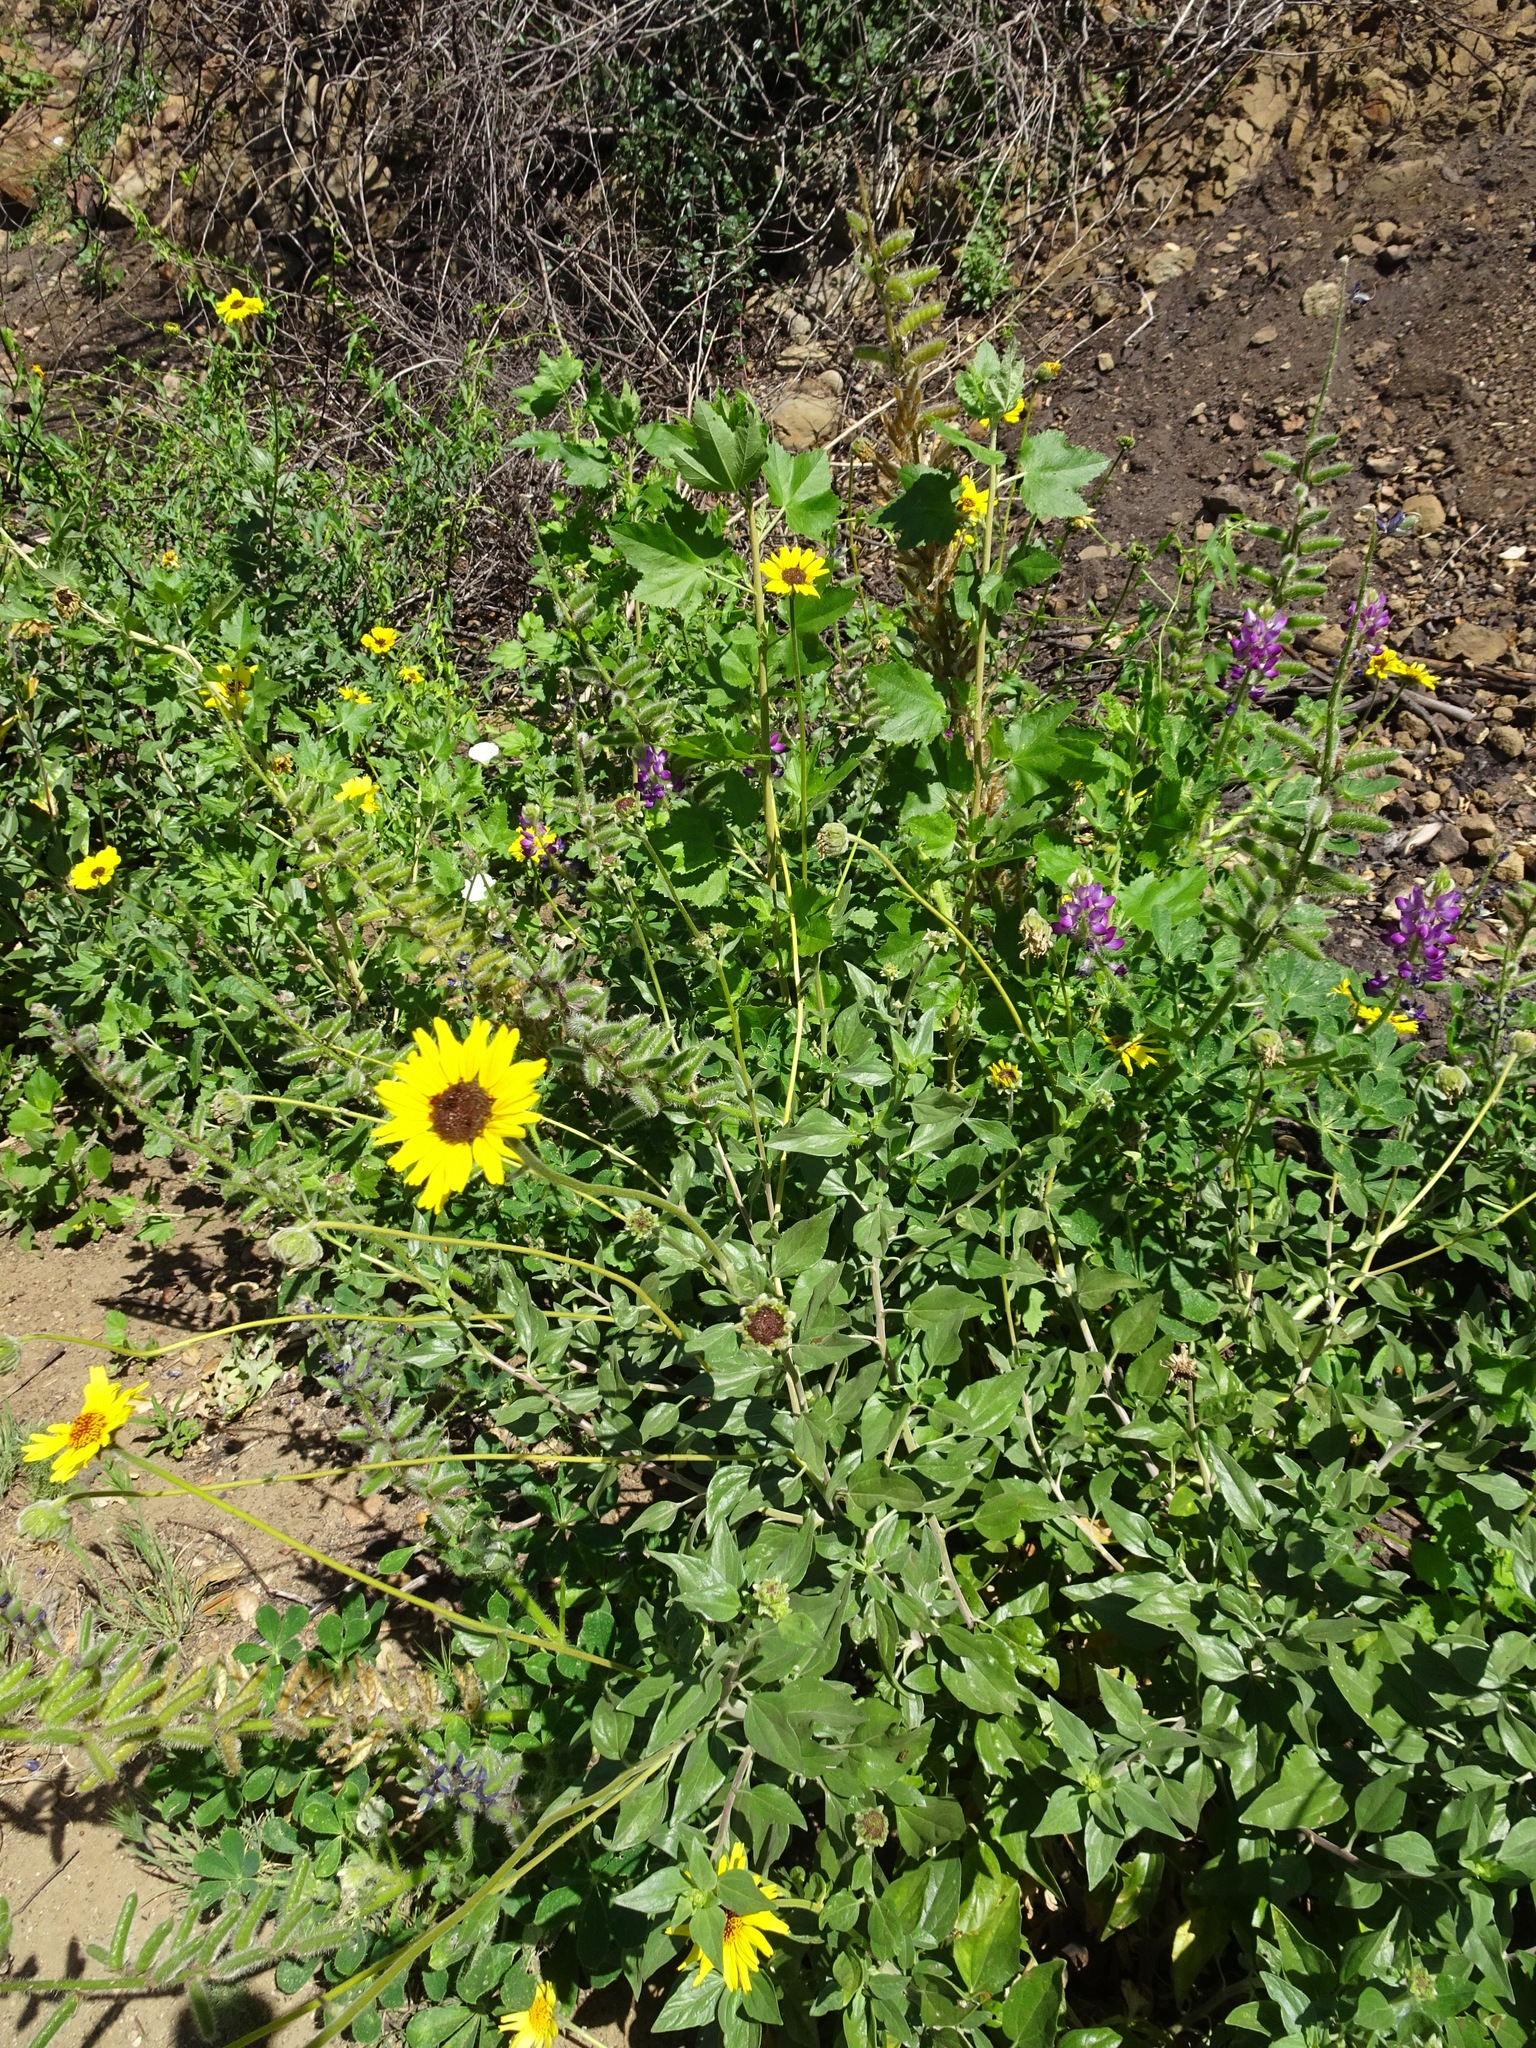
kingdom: Plantae
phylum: Tracheophyta
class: Magnoliopsida
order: Asterales
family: Asteraceae
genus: Encelia
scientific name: Encelia californica
